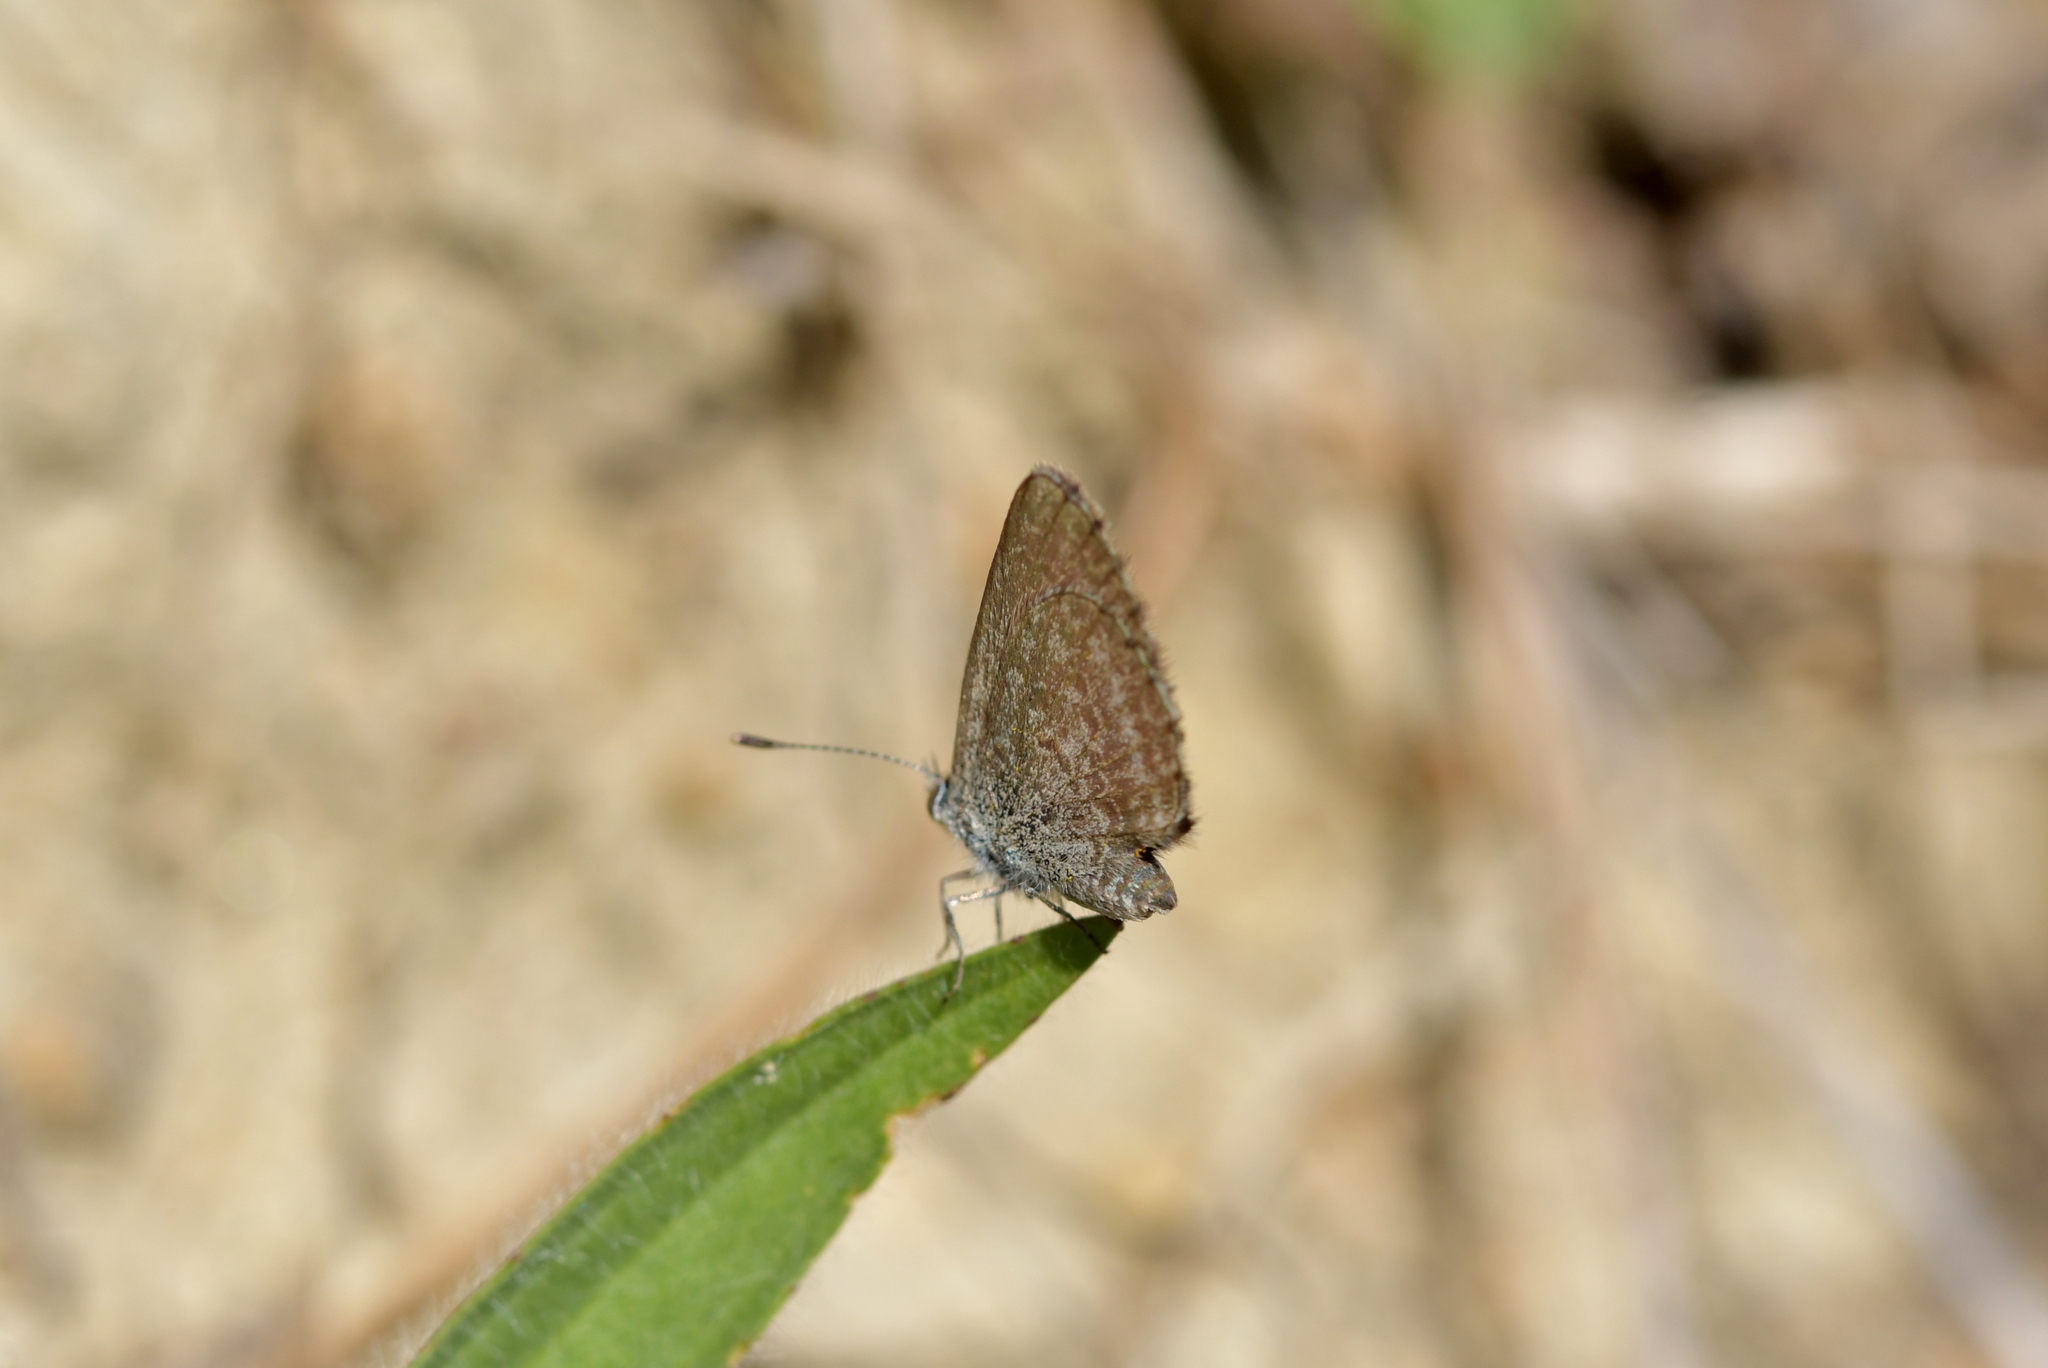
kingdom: Animalia
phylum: Arthropoda
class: Insecta
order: Lepidoptera
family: Lycaenidae
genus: Zizina
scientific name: Zizina labradus
